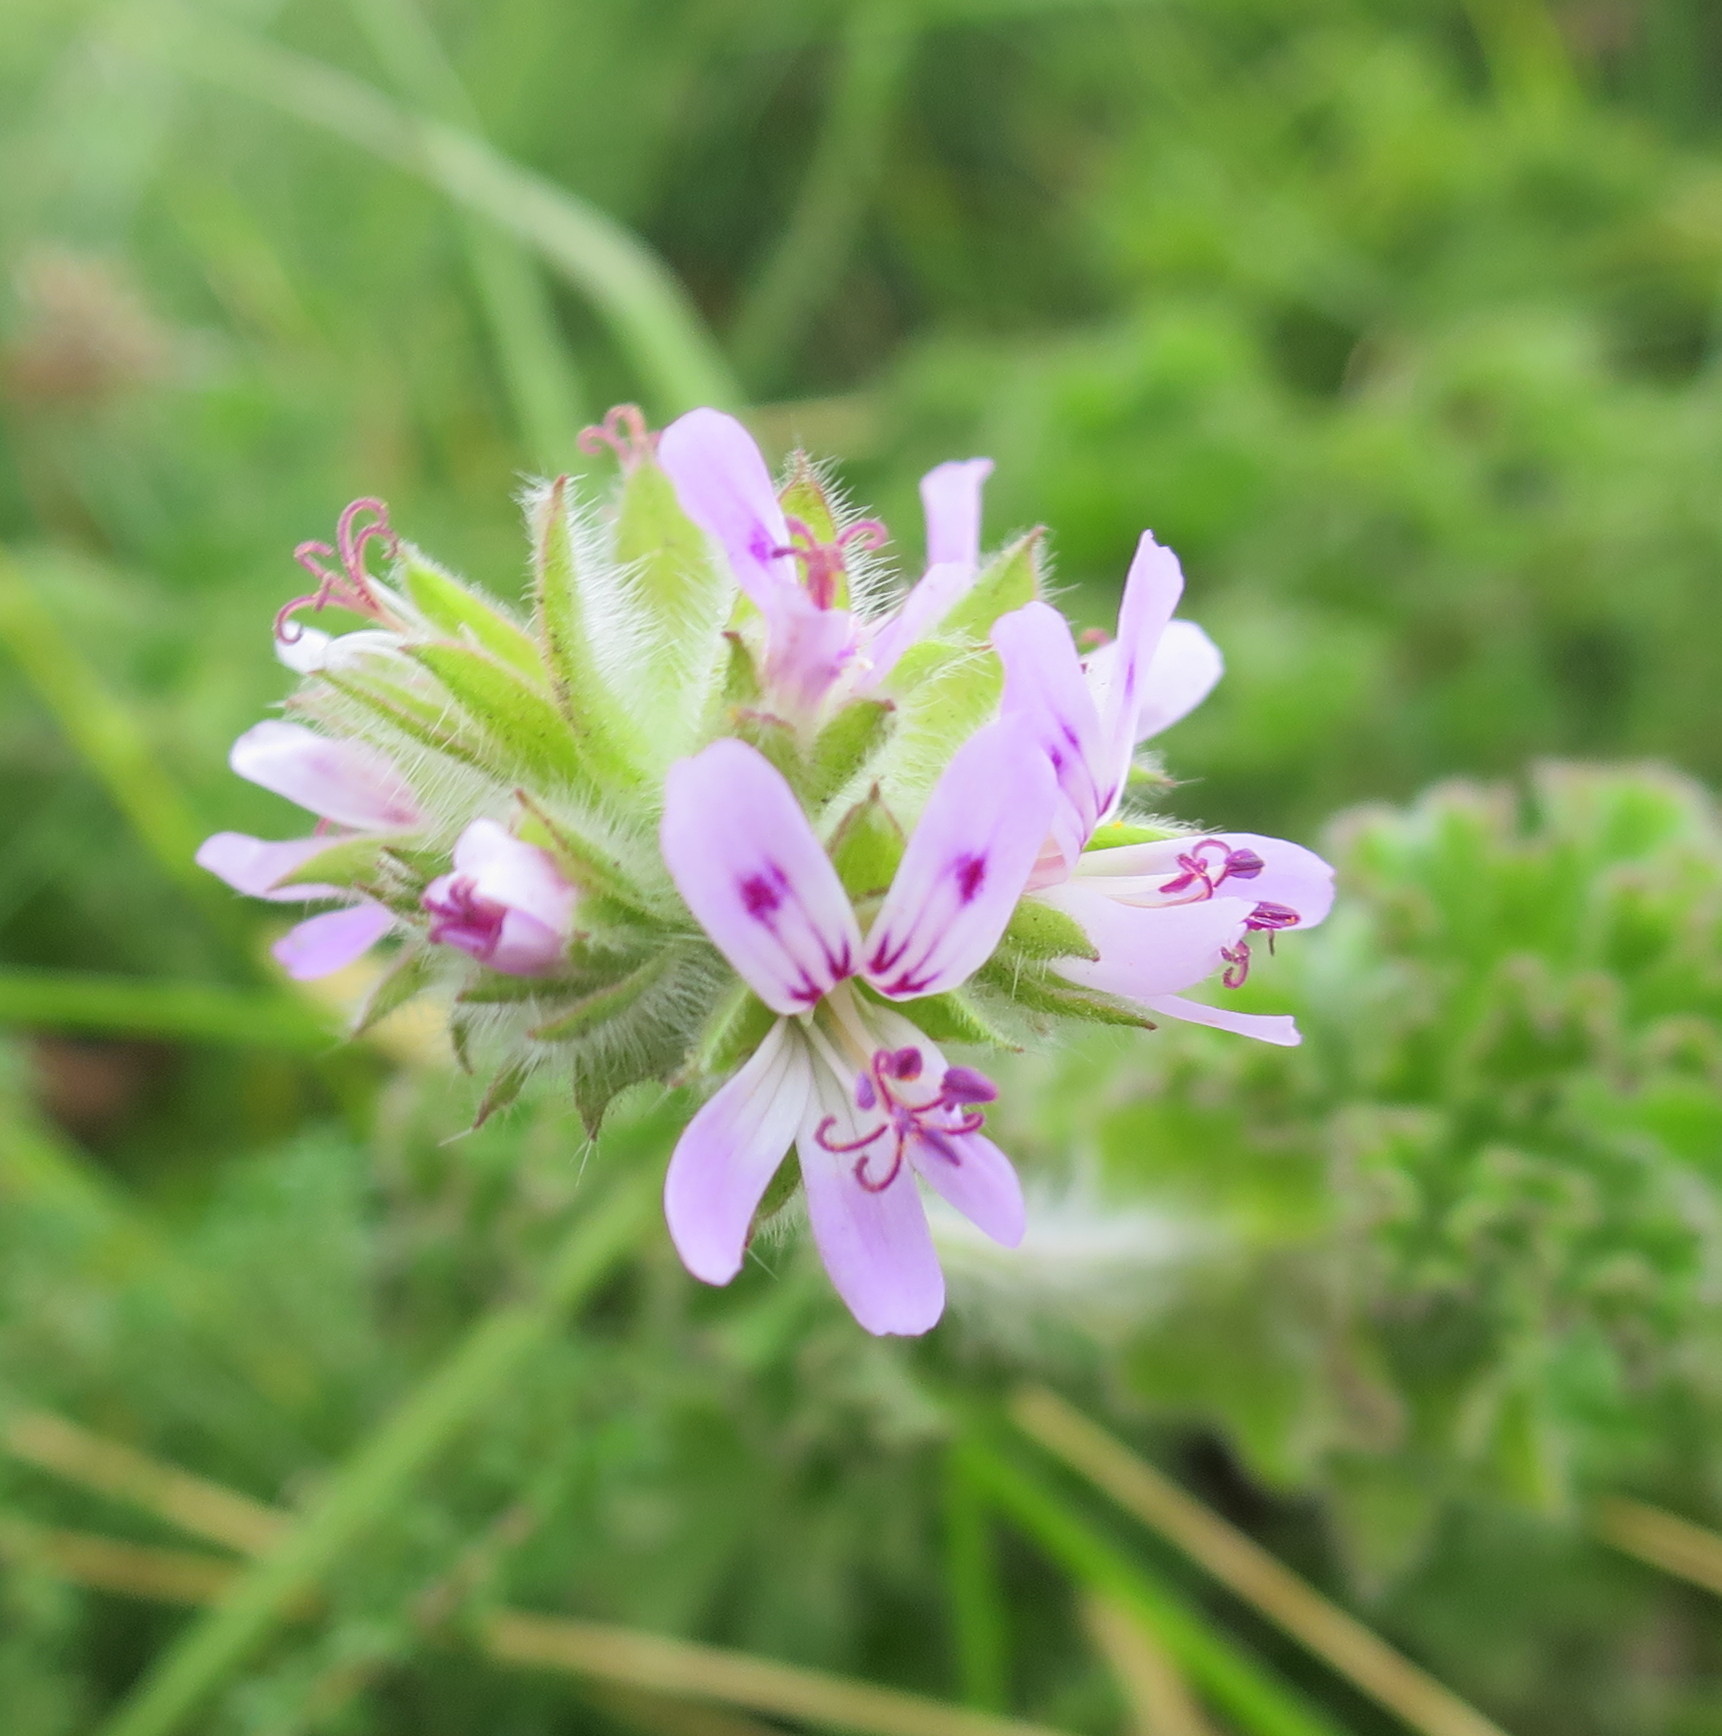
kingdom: Plantae
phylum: Tracheophyta
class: Magnoliopsida
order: Geraniales
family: Geraniaceae
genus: Pelargonium
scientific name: Pelargonium capitatum
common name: Rose scented geranium
